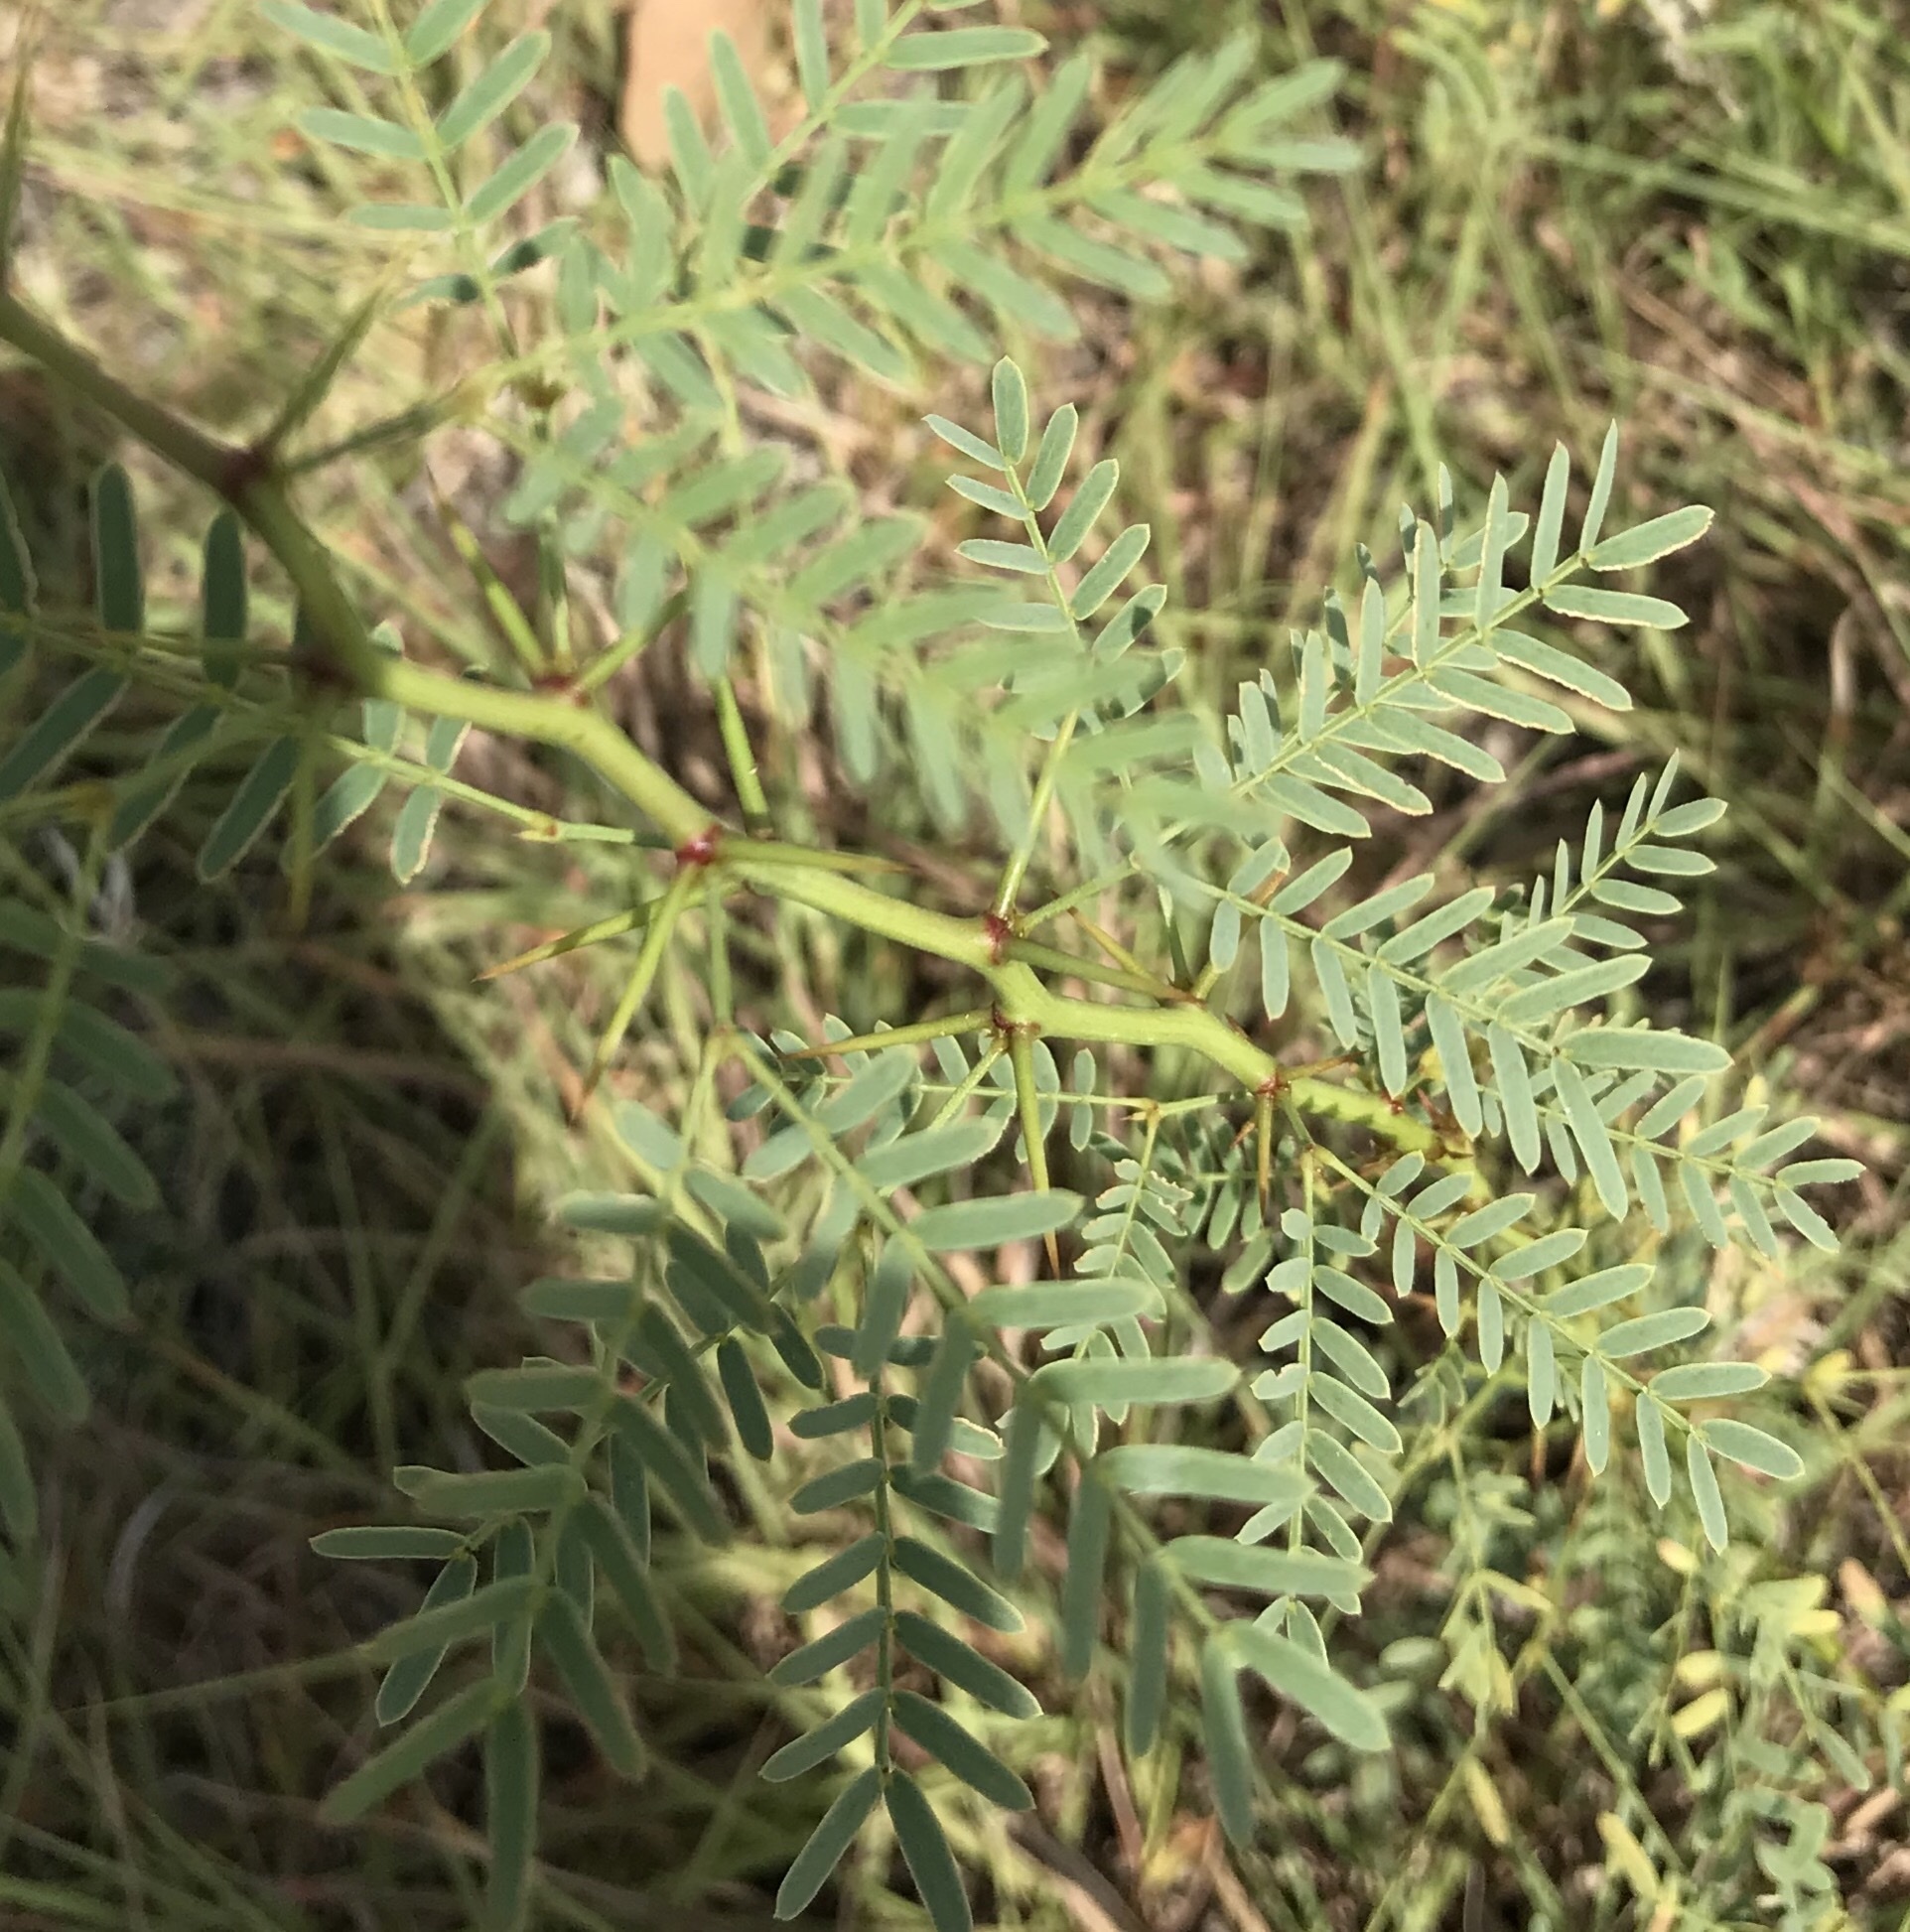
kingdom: Plantae
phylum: Tracheophyta
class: Magnoliopsida
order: Fabales
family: Fabaceae
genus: Prosopis
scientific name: Prosopis glandulosa
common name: Honey mesquite
